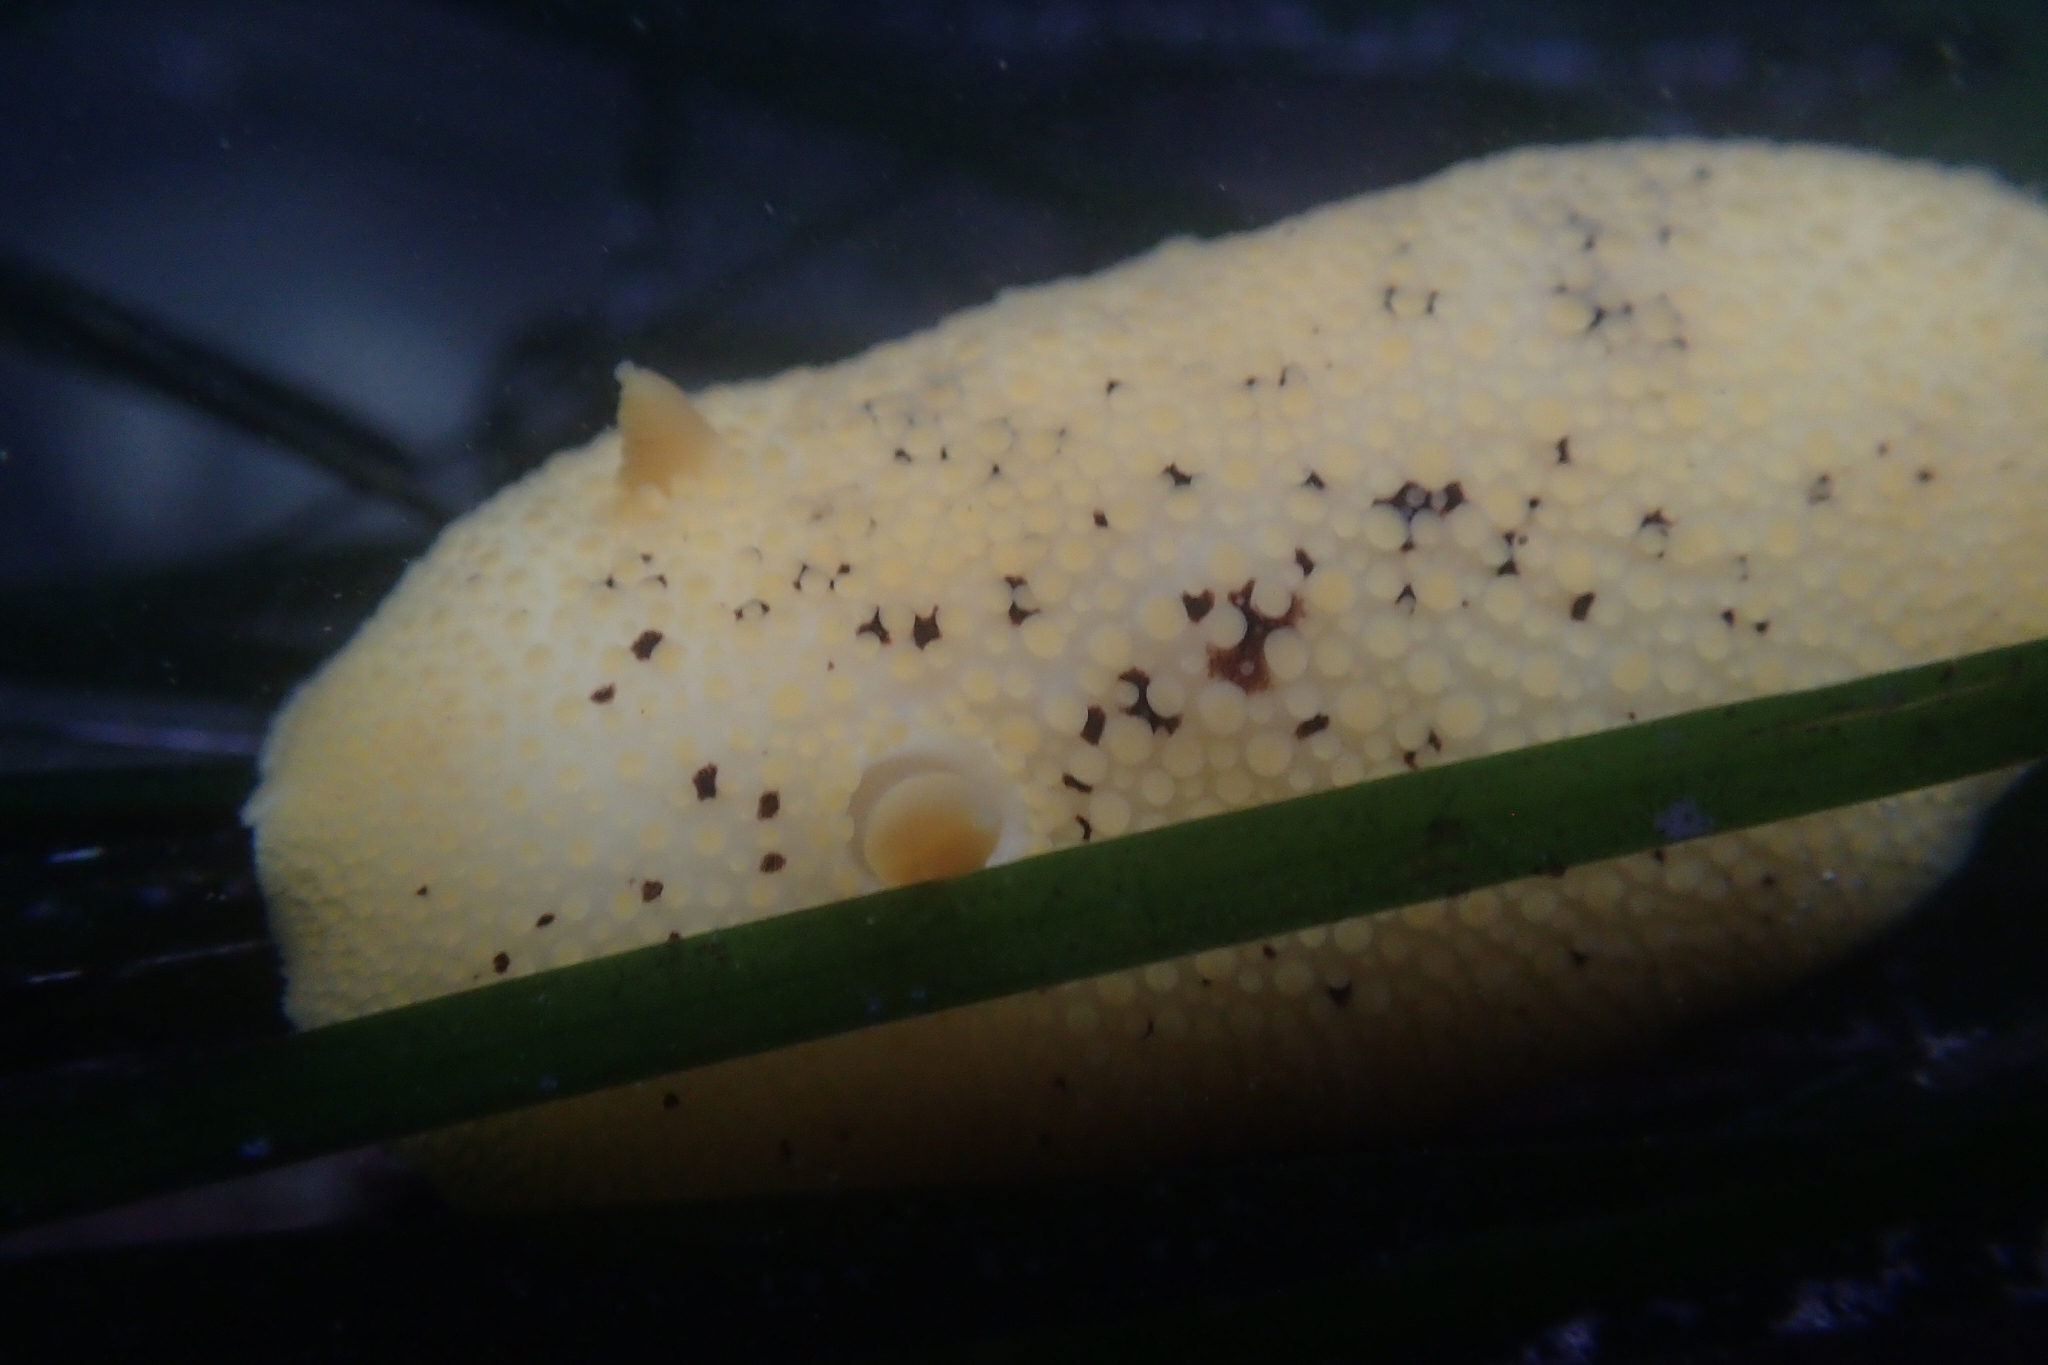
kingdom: Animalia
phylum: Mollusca
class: Gastropoda
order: Nudibranchia
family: Discodorididae
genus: Peltodoris
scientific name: Peltodoris nobilis
